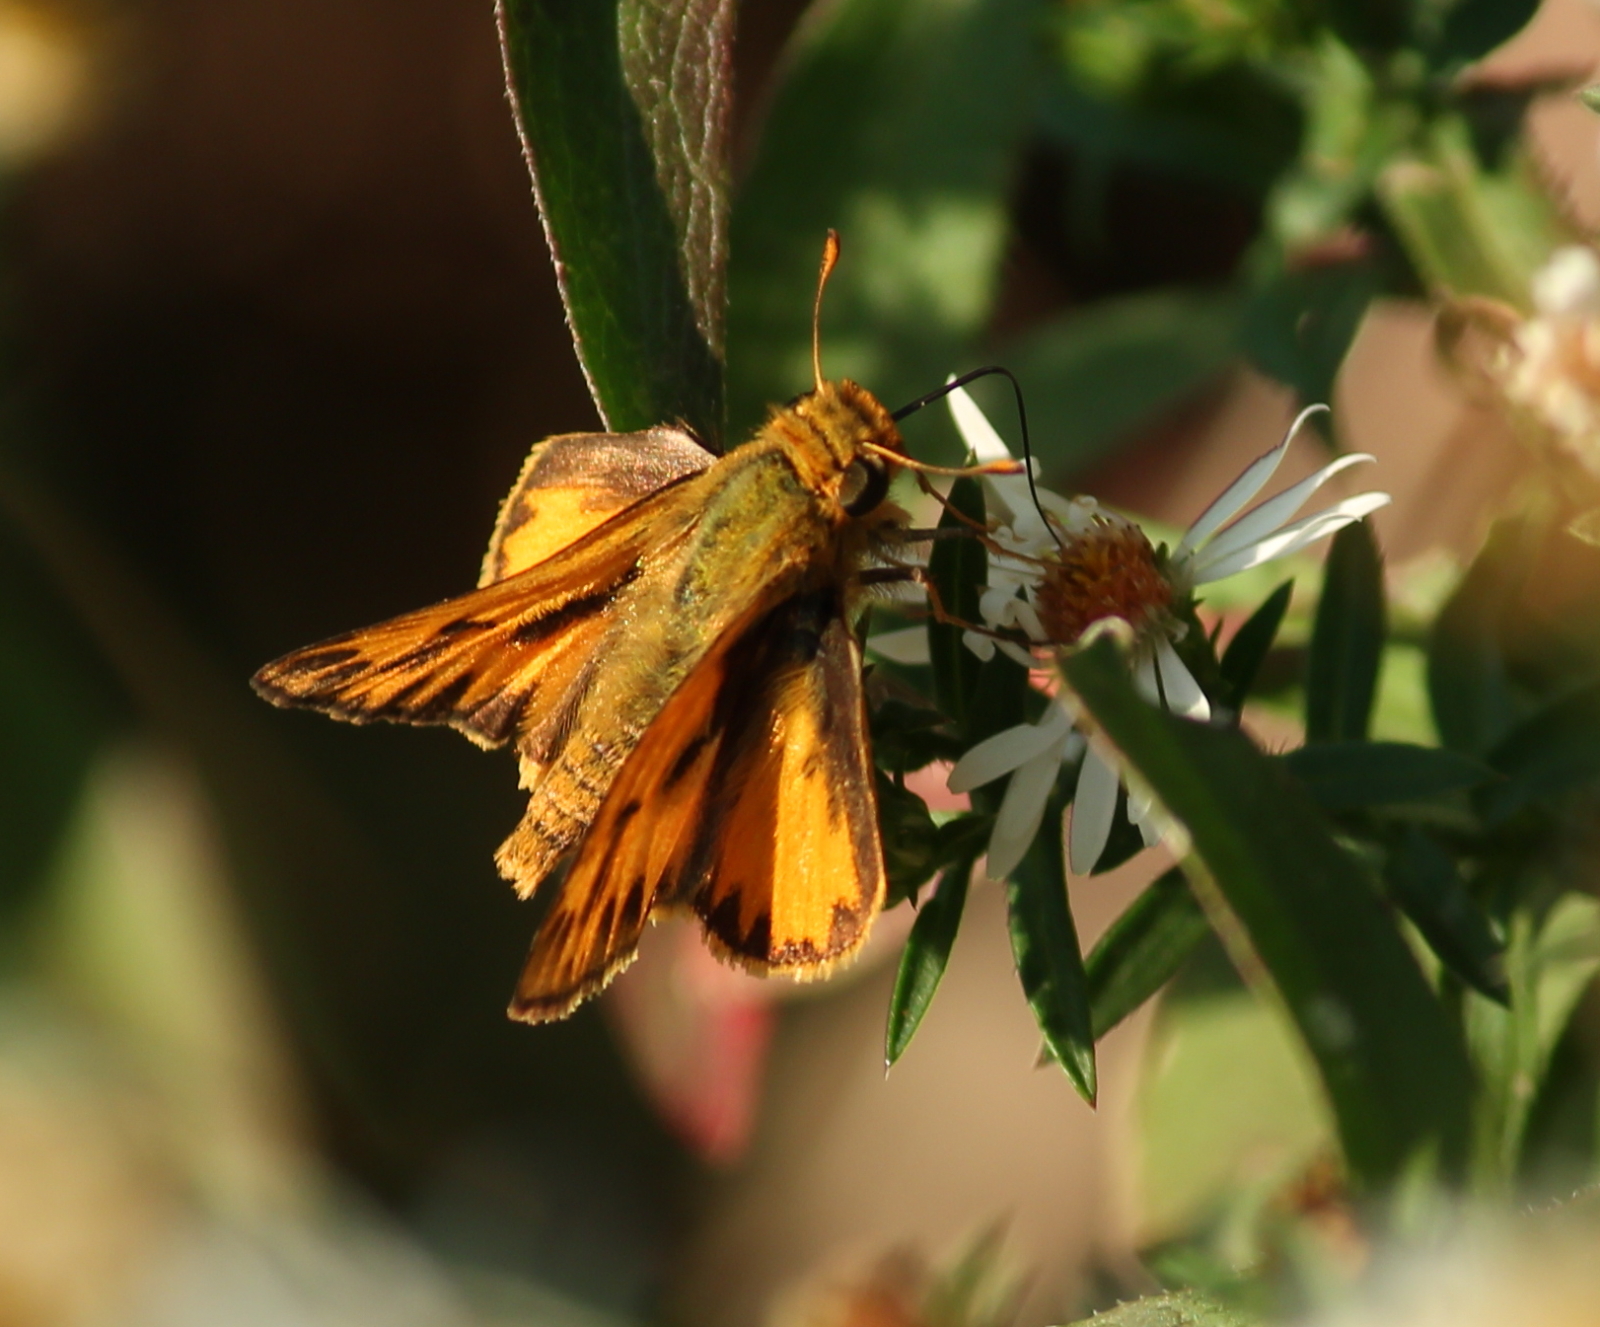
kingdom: Animalia
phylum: Arthropoda
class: Insecta
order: Lepidoptera
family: Hesperiidae
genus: Hylephila
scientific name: Hylephila phyleus
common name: Fiery skipper
